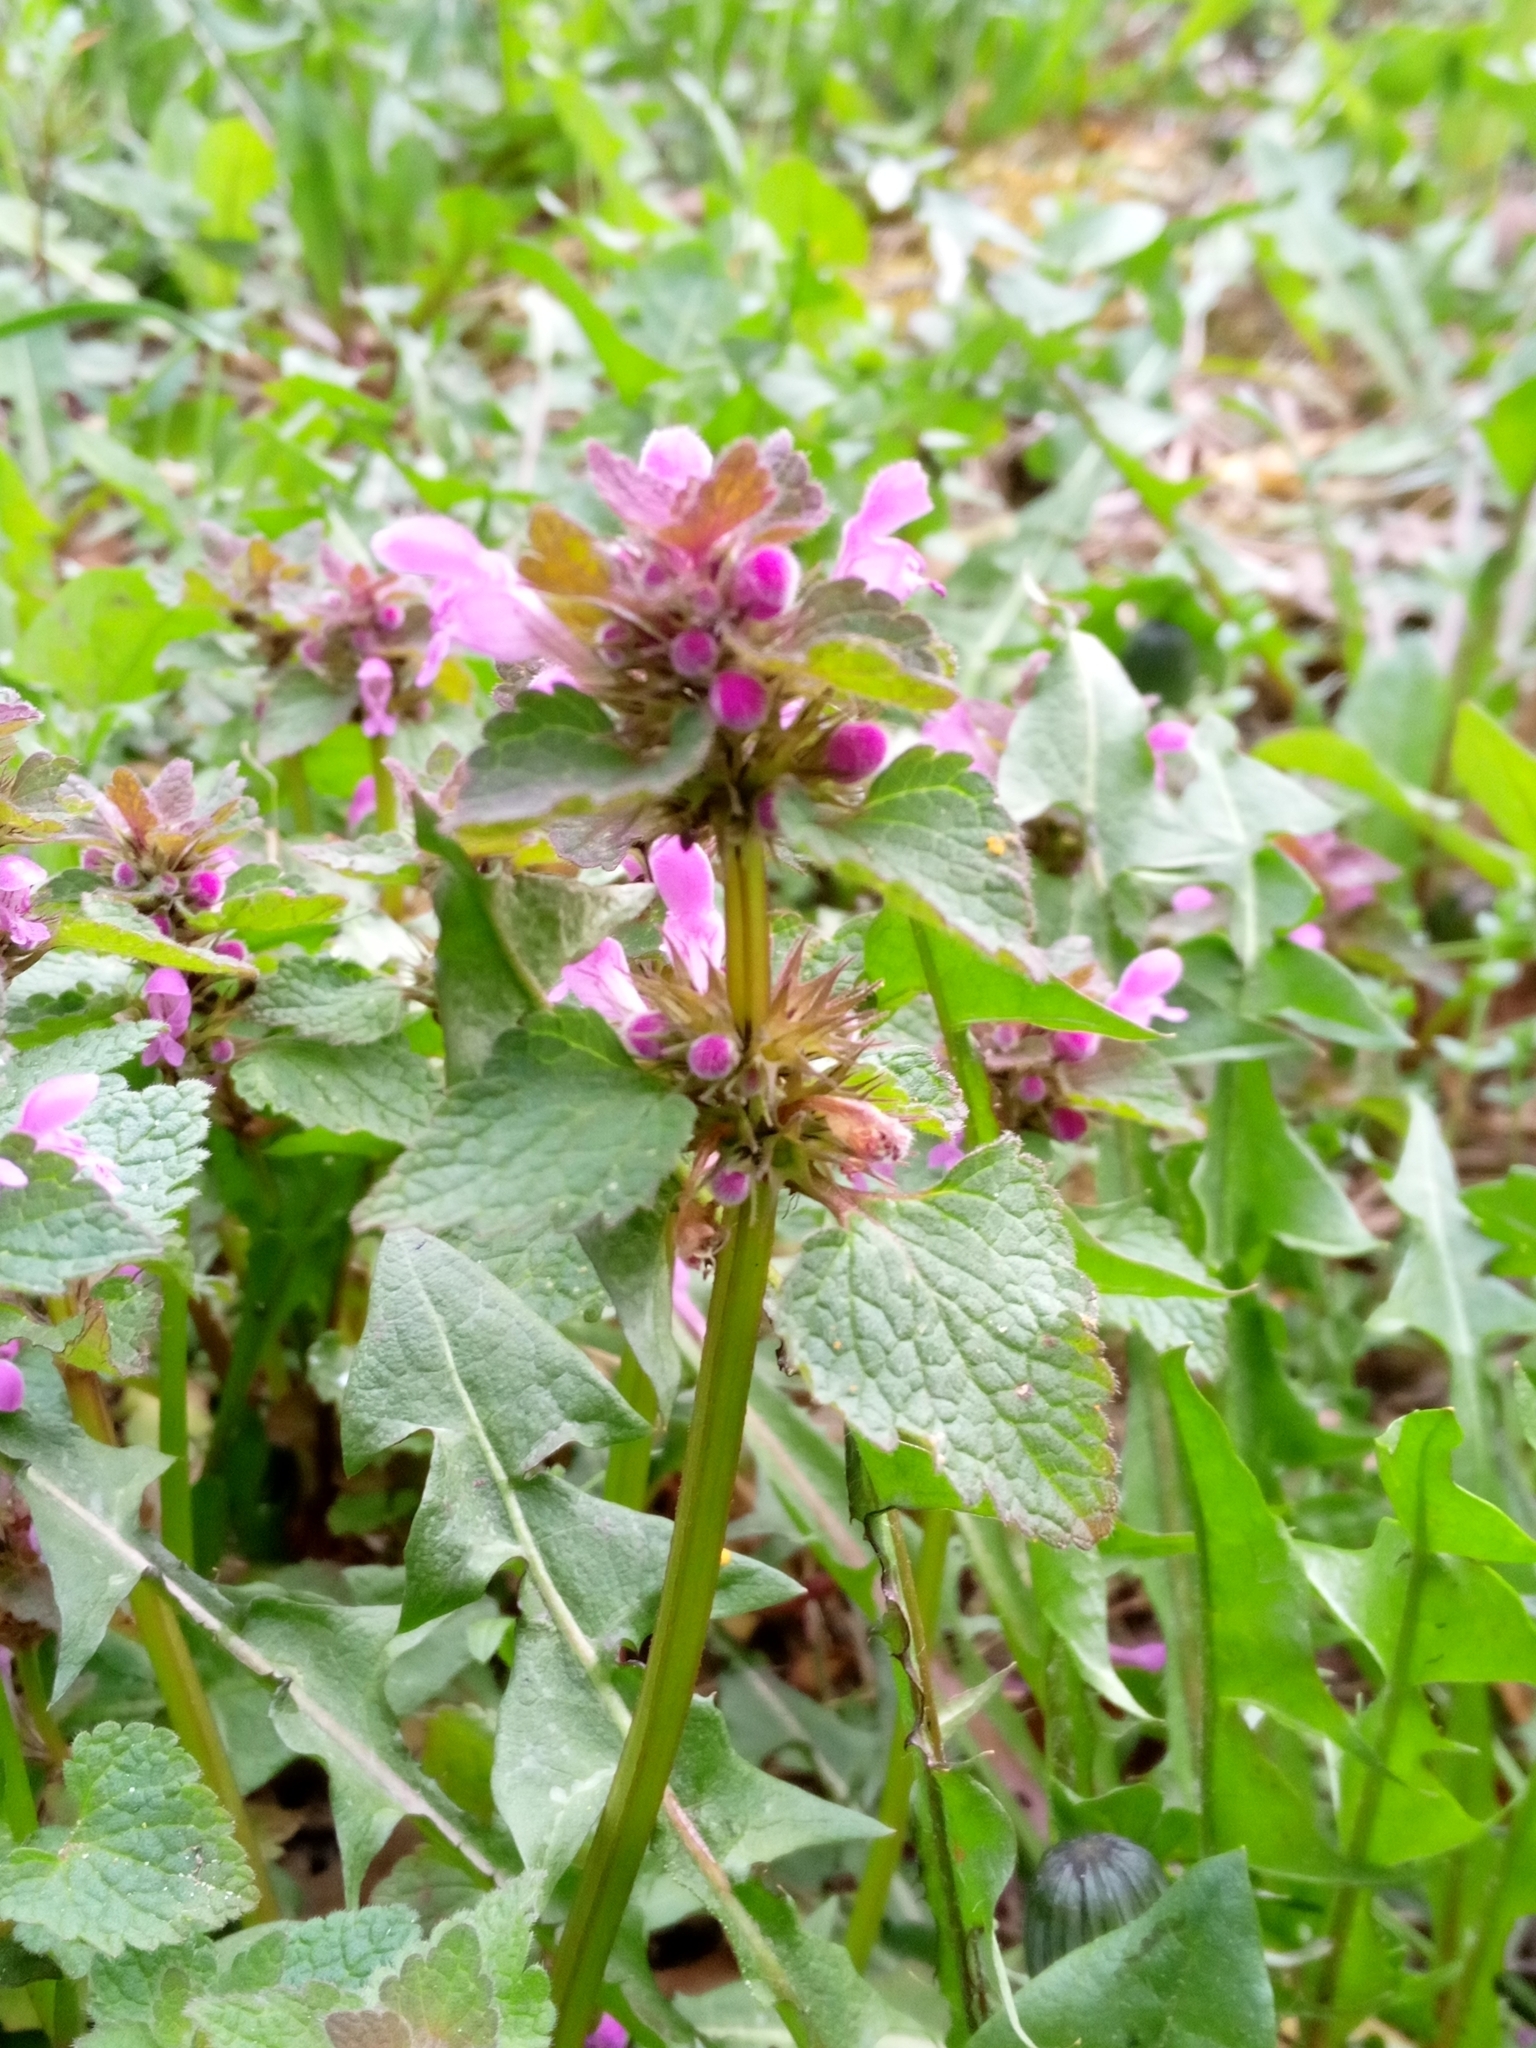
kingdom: Plantae
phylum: Tracheophyta
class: Magnoliopsida
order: Lamiales
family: Lamiaceae
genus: Lamium
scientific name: Lamium purpureum
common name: Red dead-nettle
